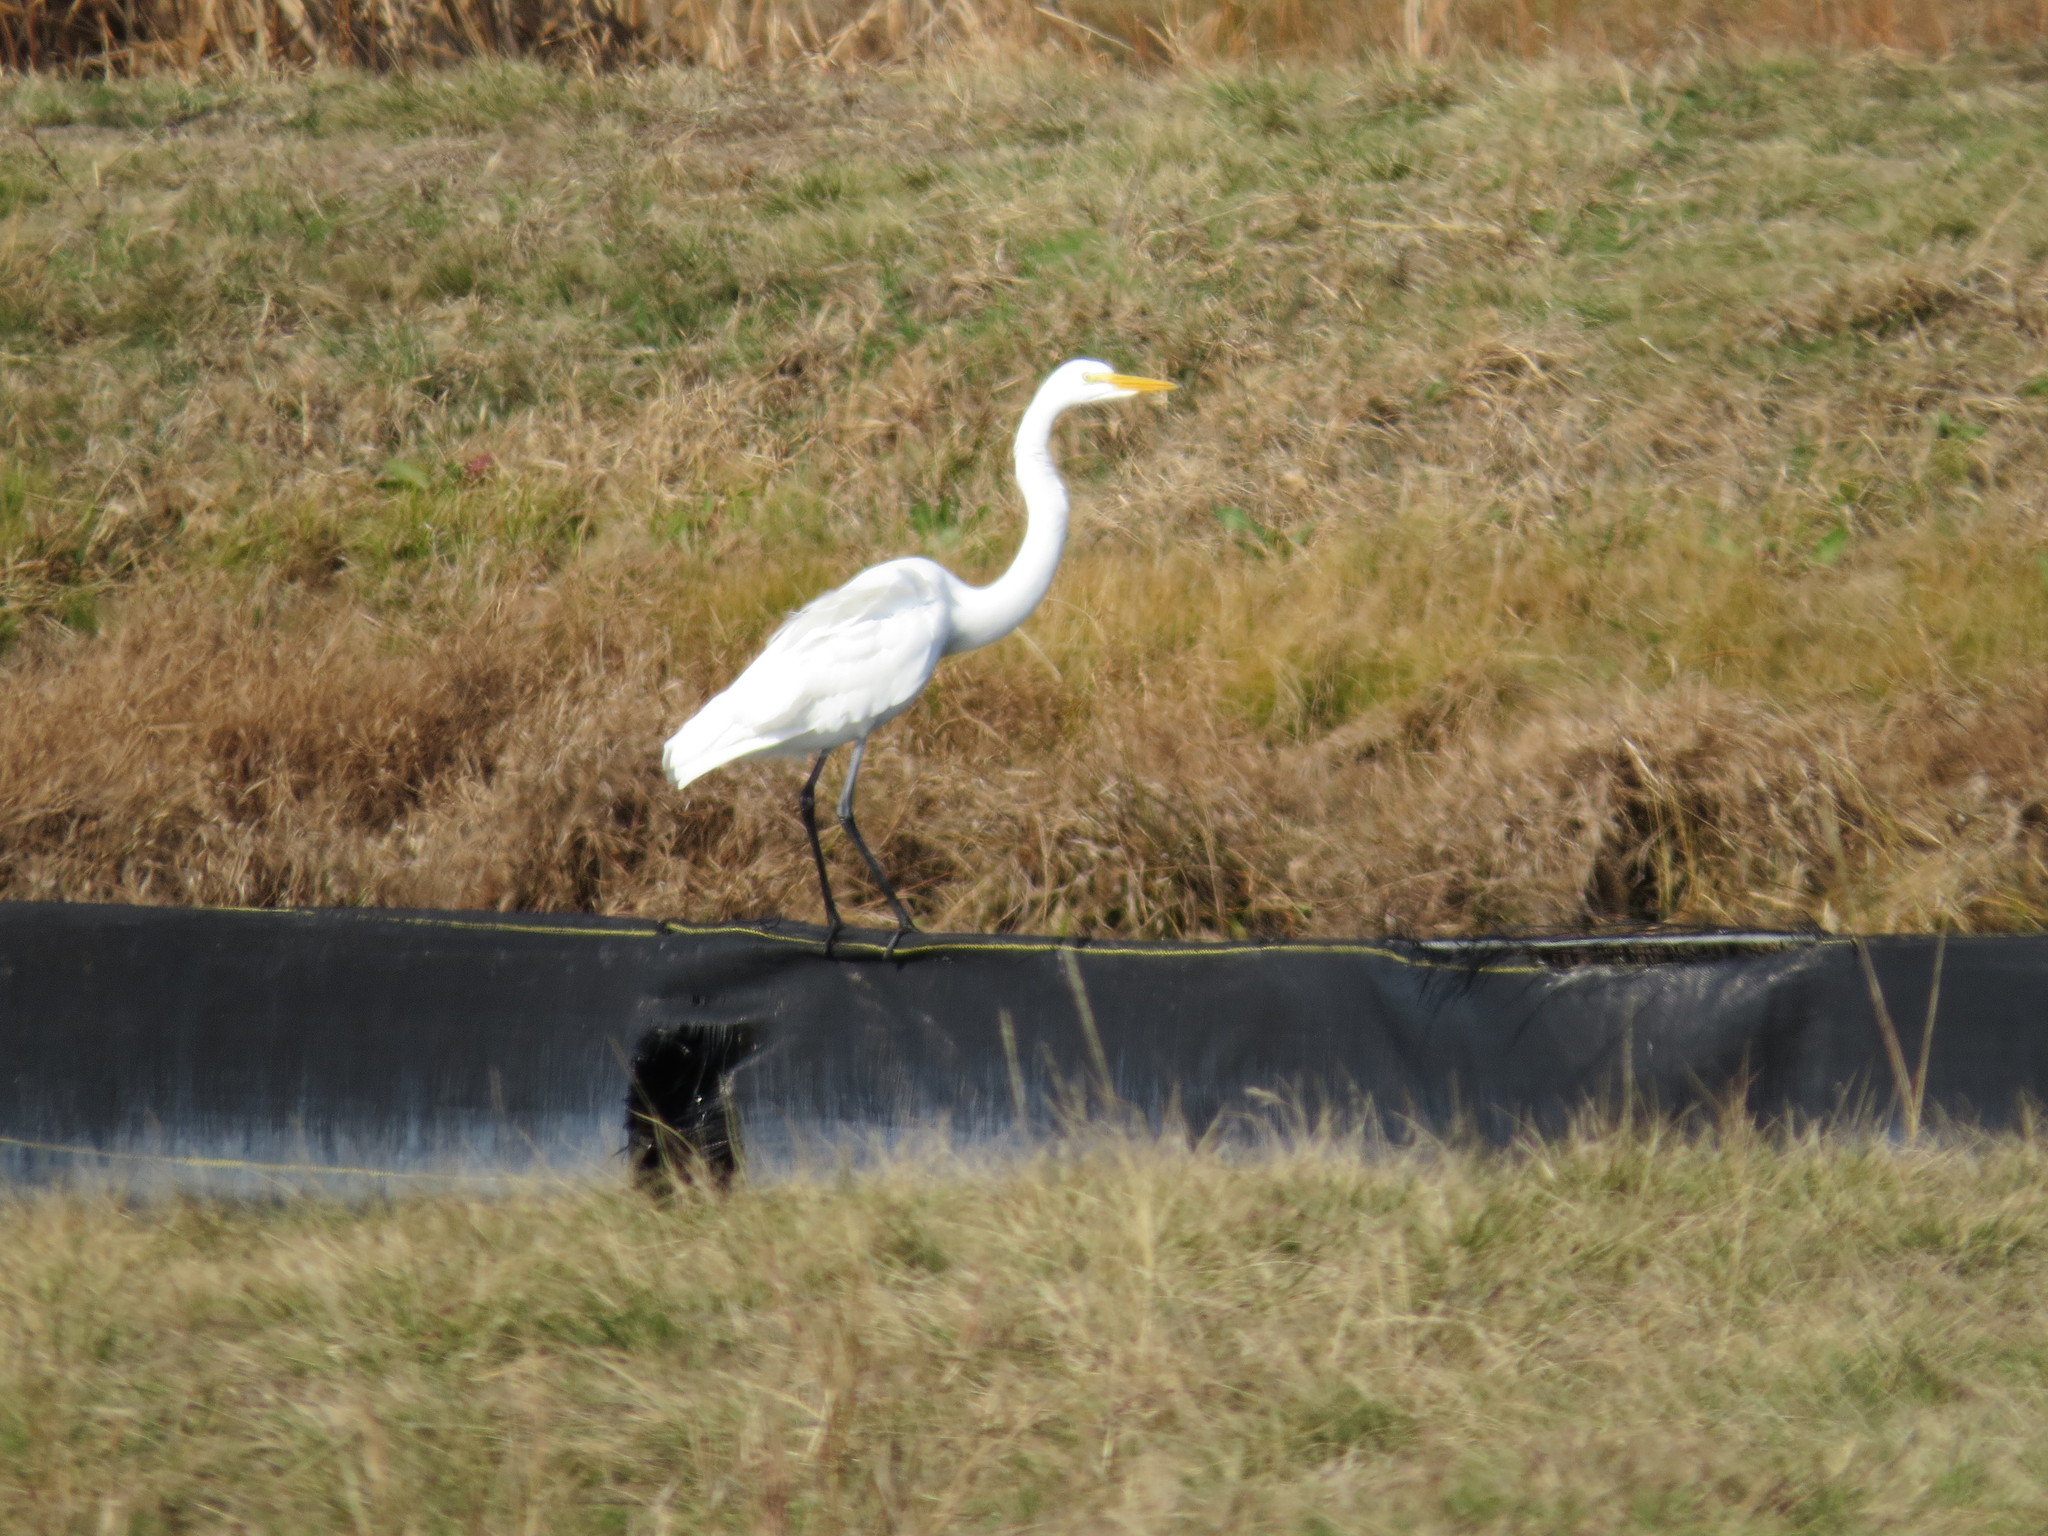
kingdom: Animalia
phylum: Chordata
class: Aves
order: Pelecaniformes
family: Ardeidae
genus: Ardea
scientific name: Ardea alba
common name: Great egret
